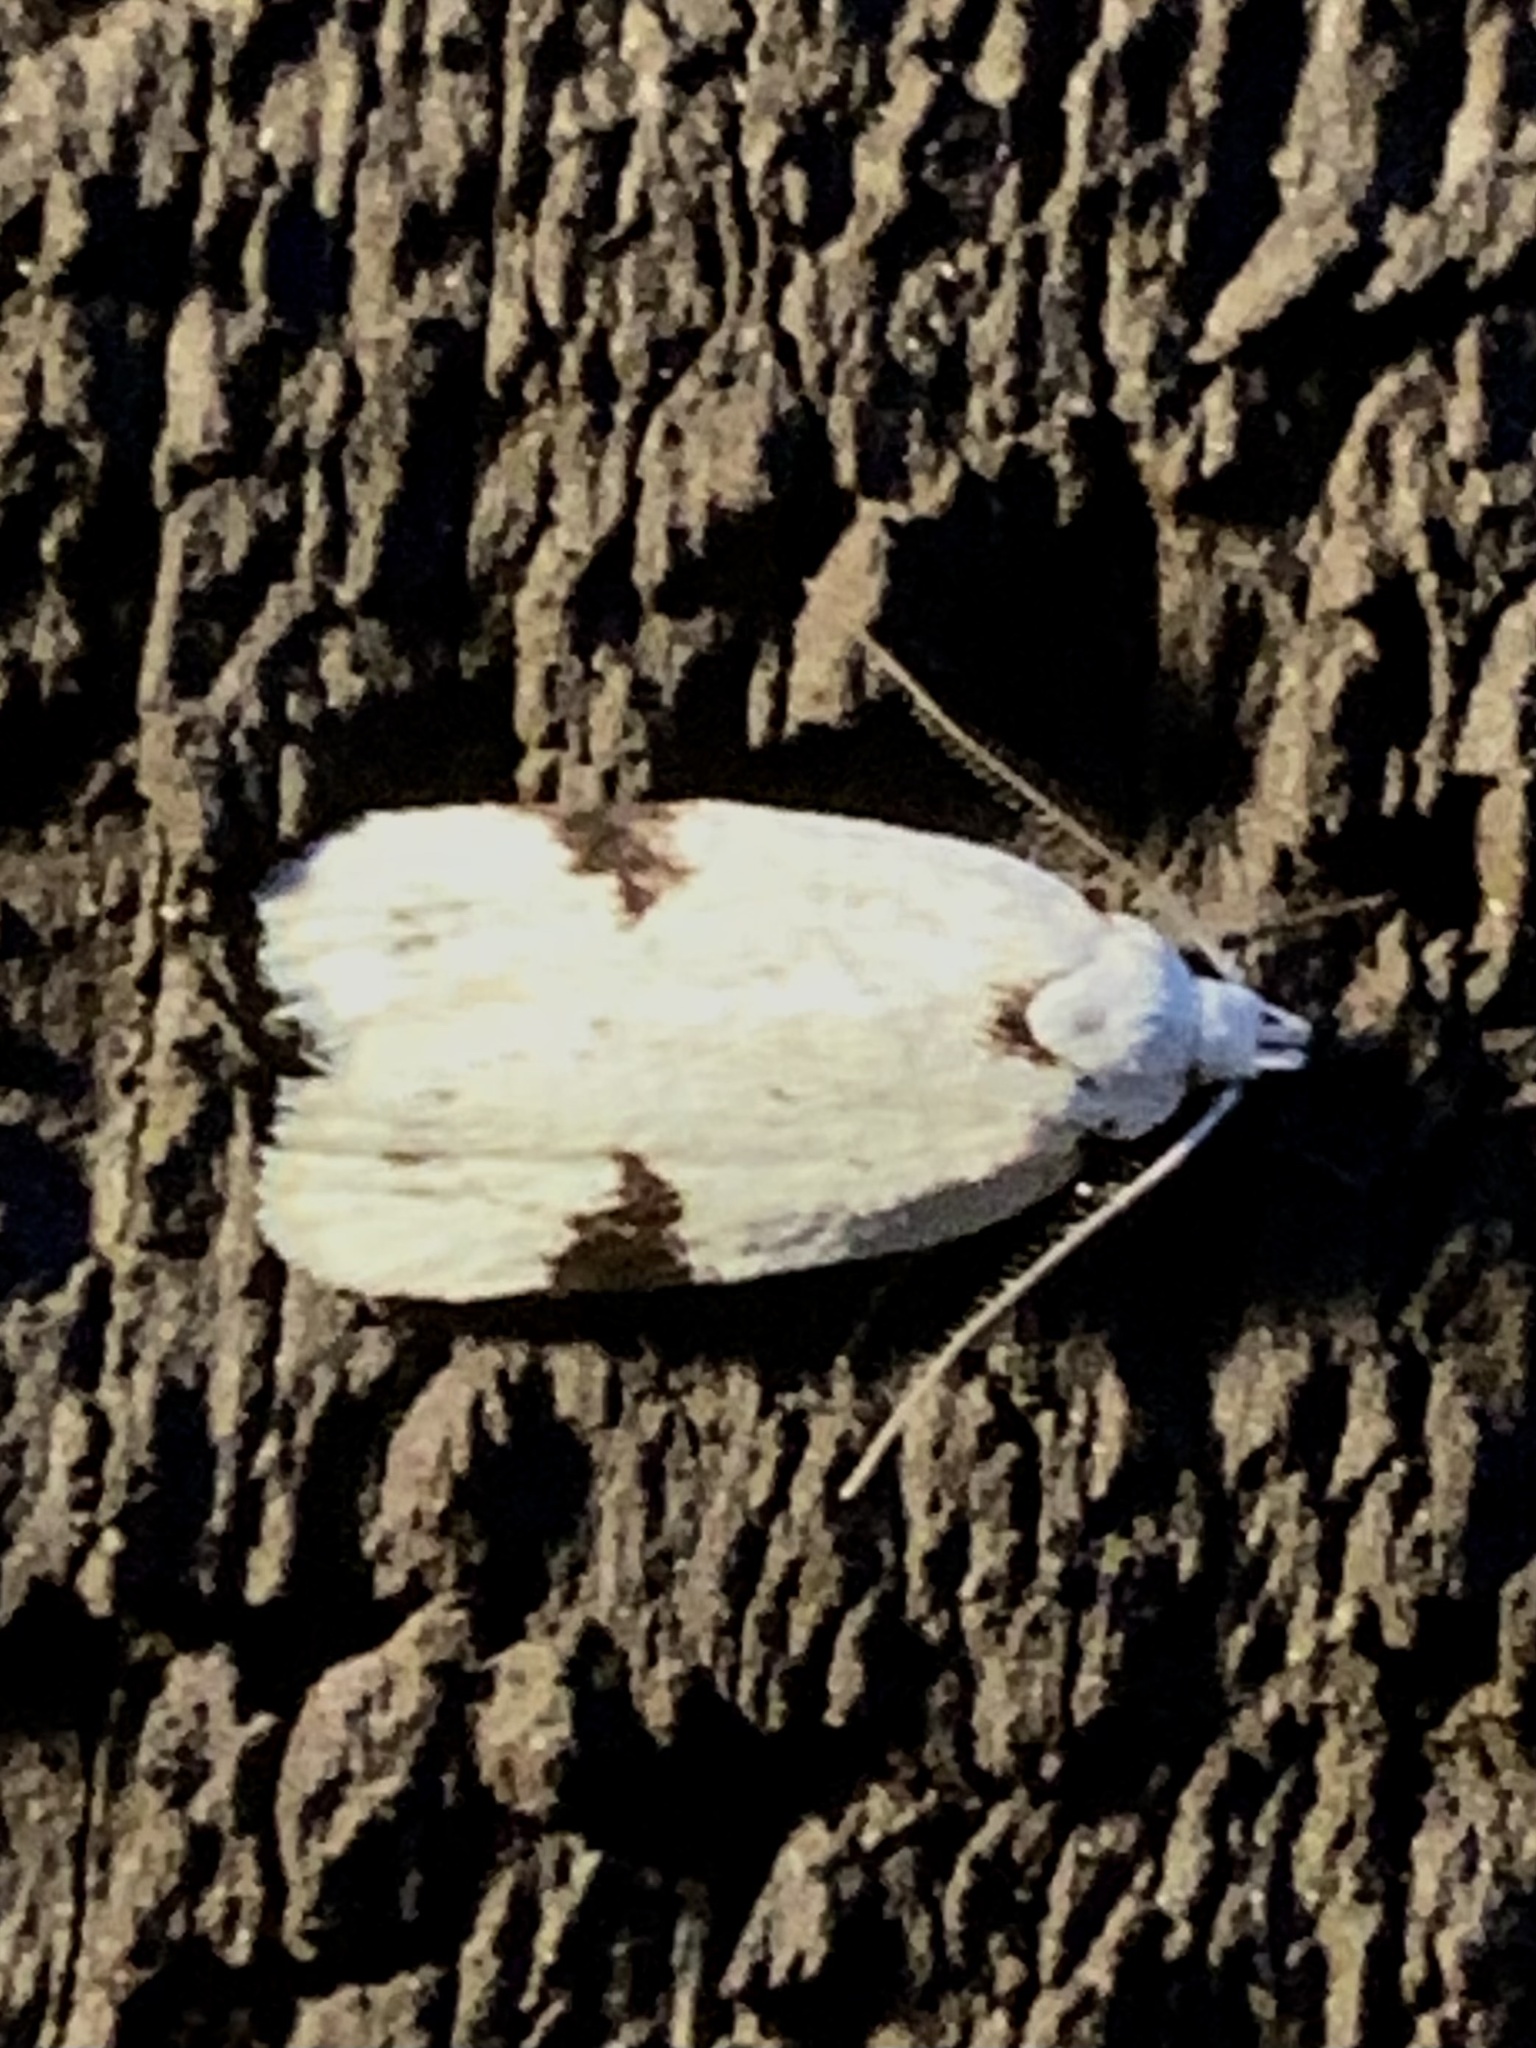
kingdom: Animalia
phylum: Arthropoda
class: Insecta
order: Lepidoptera
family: Oecophoridae
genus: Inga
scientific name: Inga sparsiciliella
